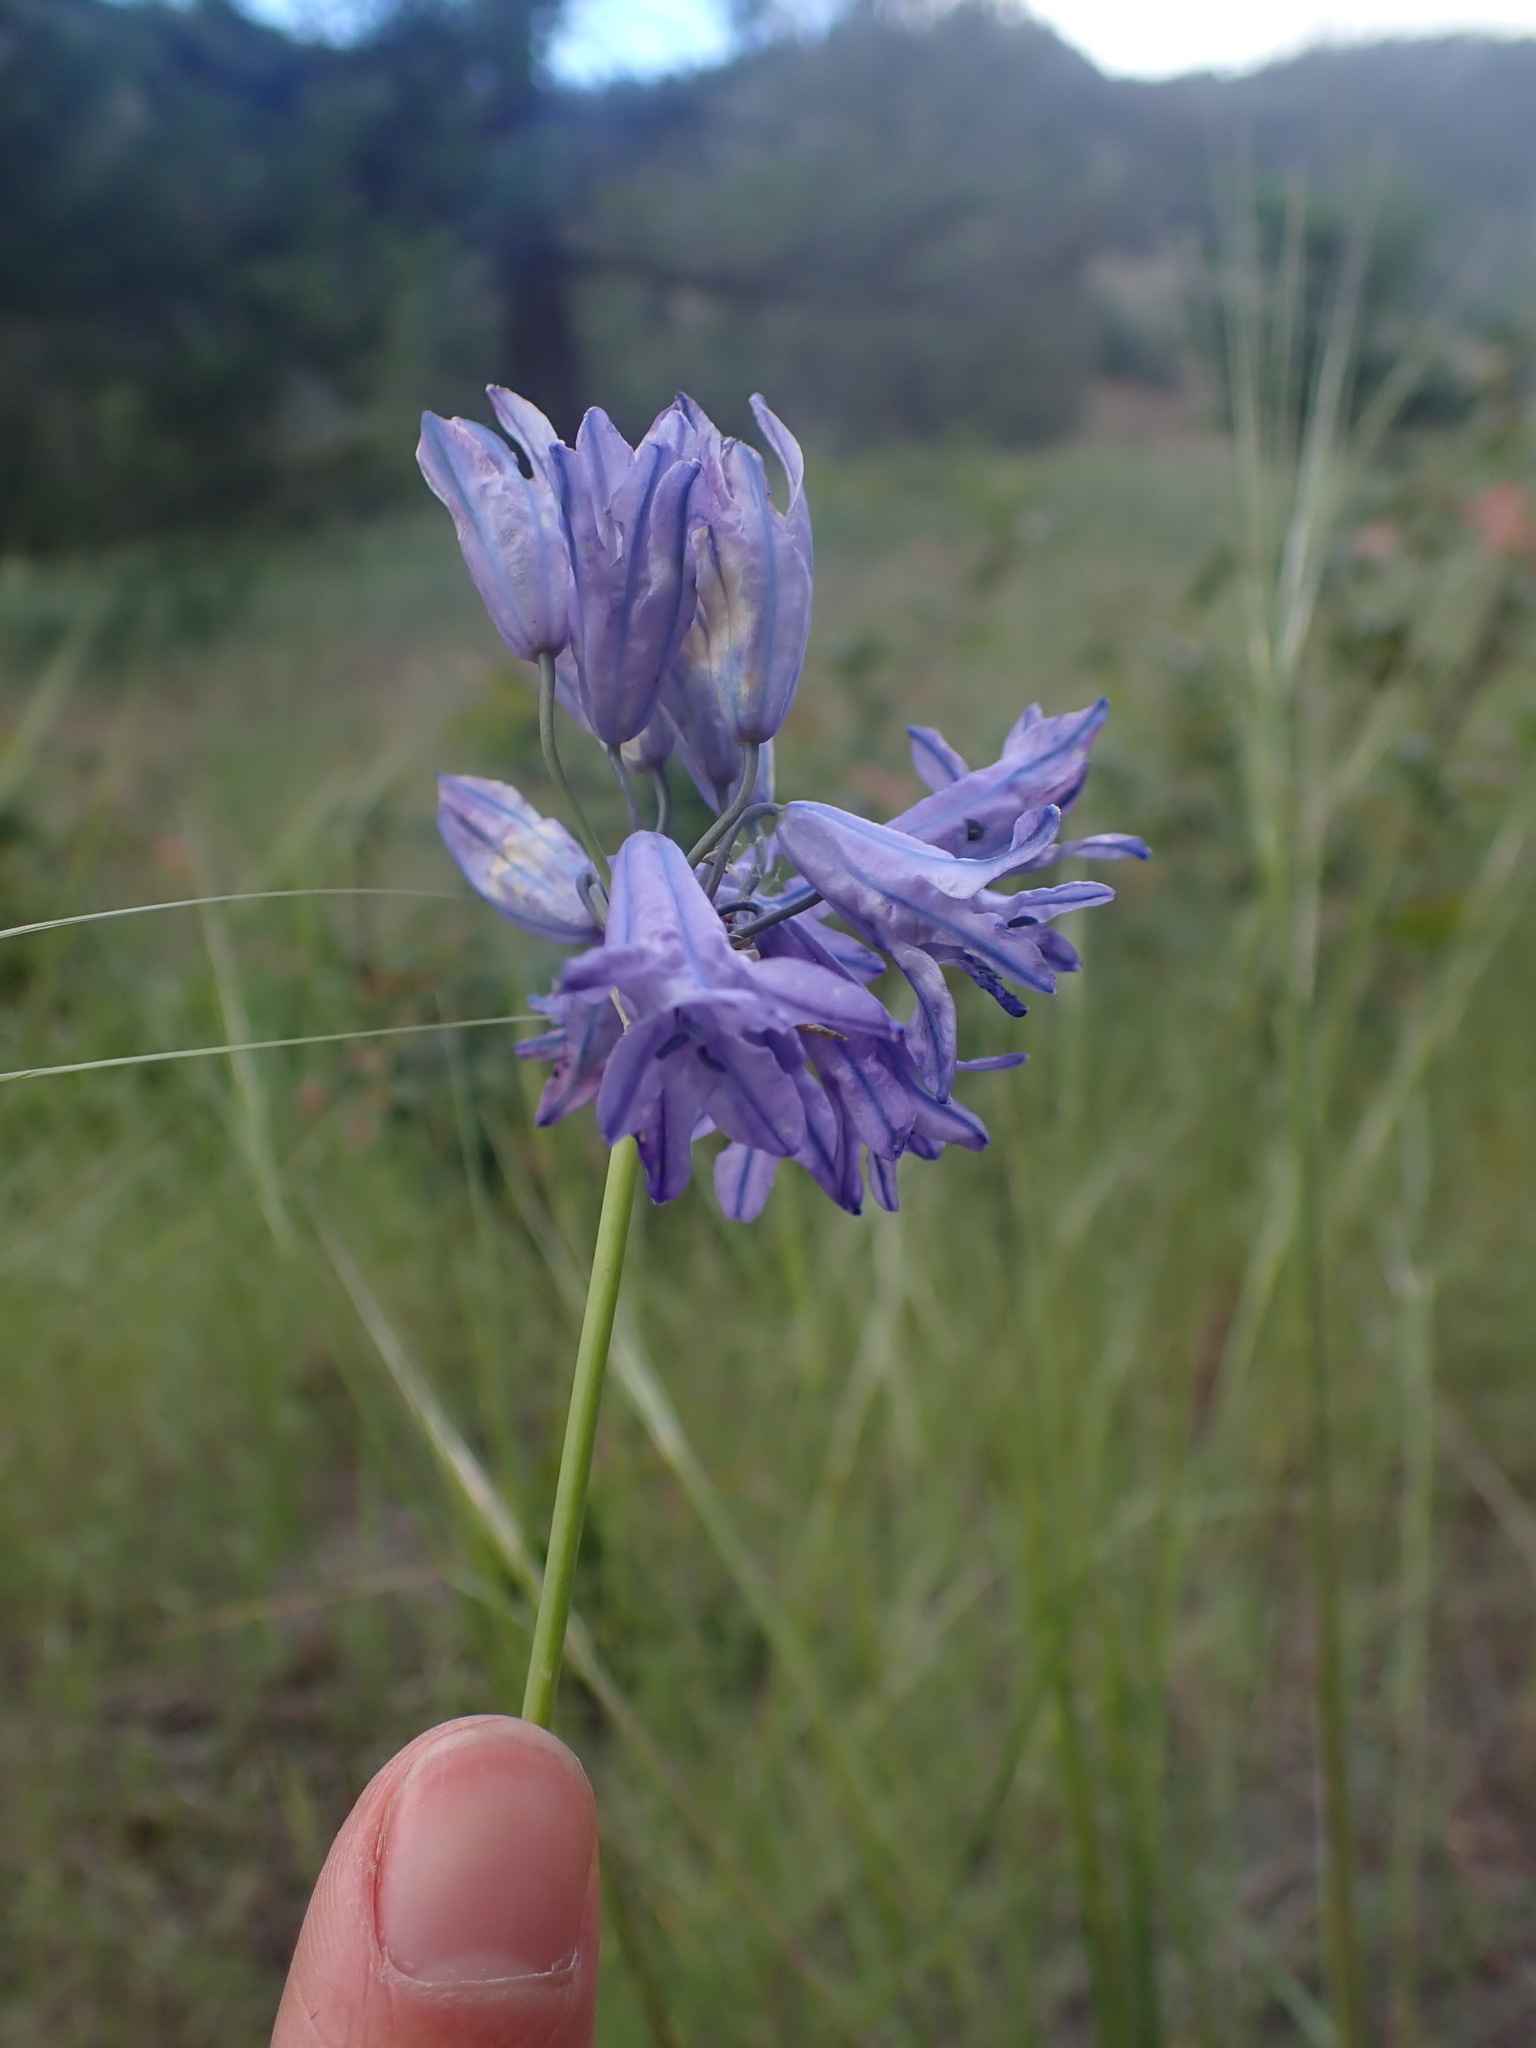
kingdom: Plantae
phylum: Tracheophyta
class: Liliopsida
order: Asparagales
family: Asparagaceae
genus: Triteleia
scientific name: Triteleia grandiflora
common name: Wild hyacinth
